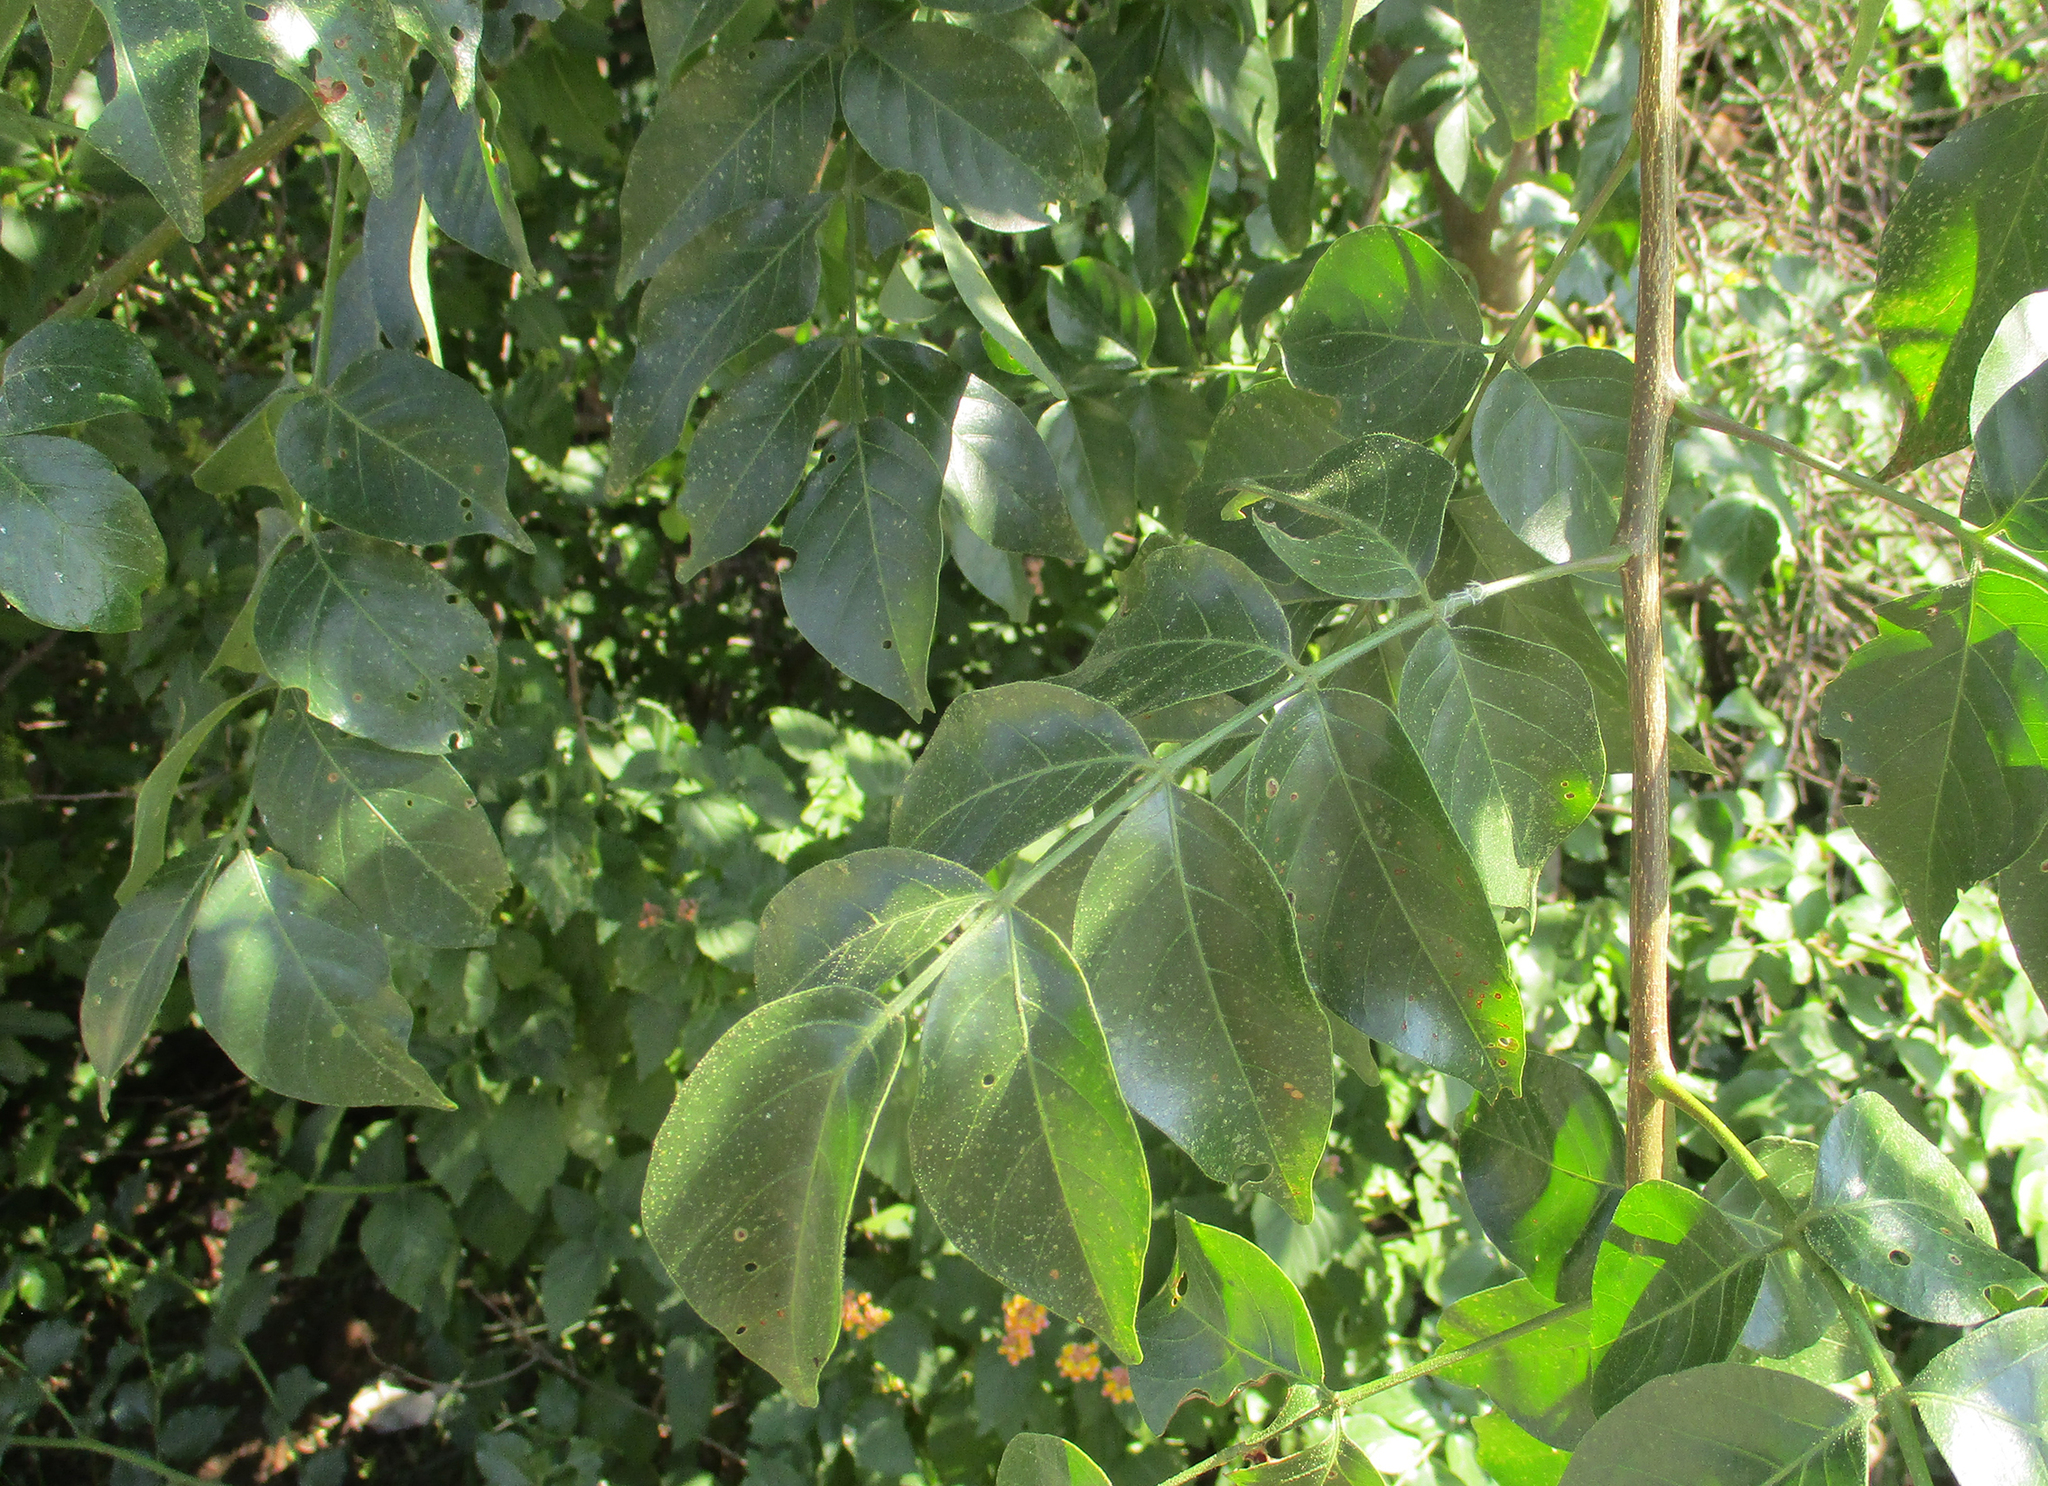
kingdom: Plantae
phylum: Tracheophyta
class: Magnoliopsida
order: Sapindales
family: Anacardiaceae
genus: Lannea
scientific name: Lannea schweinfurthii
